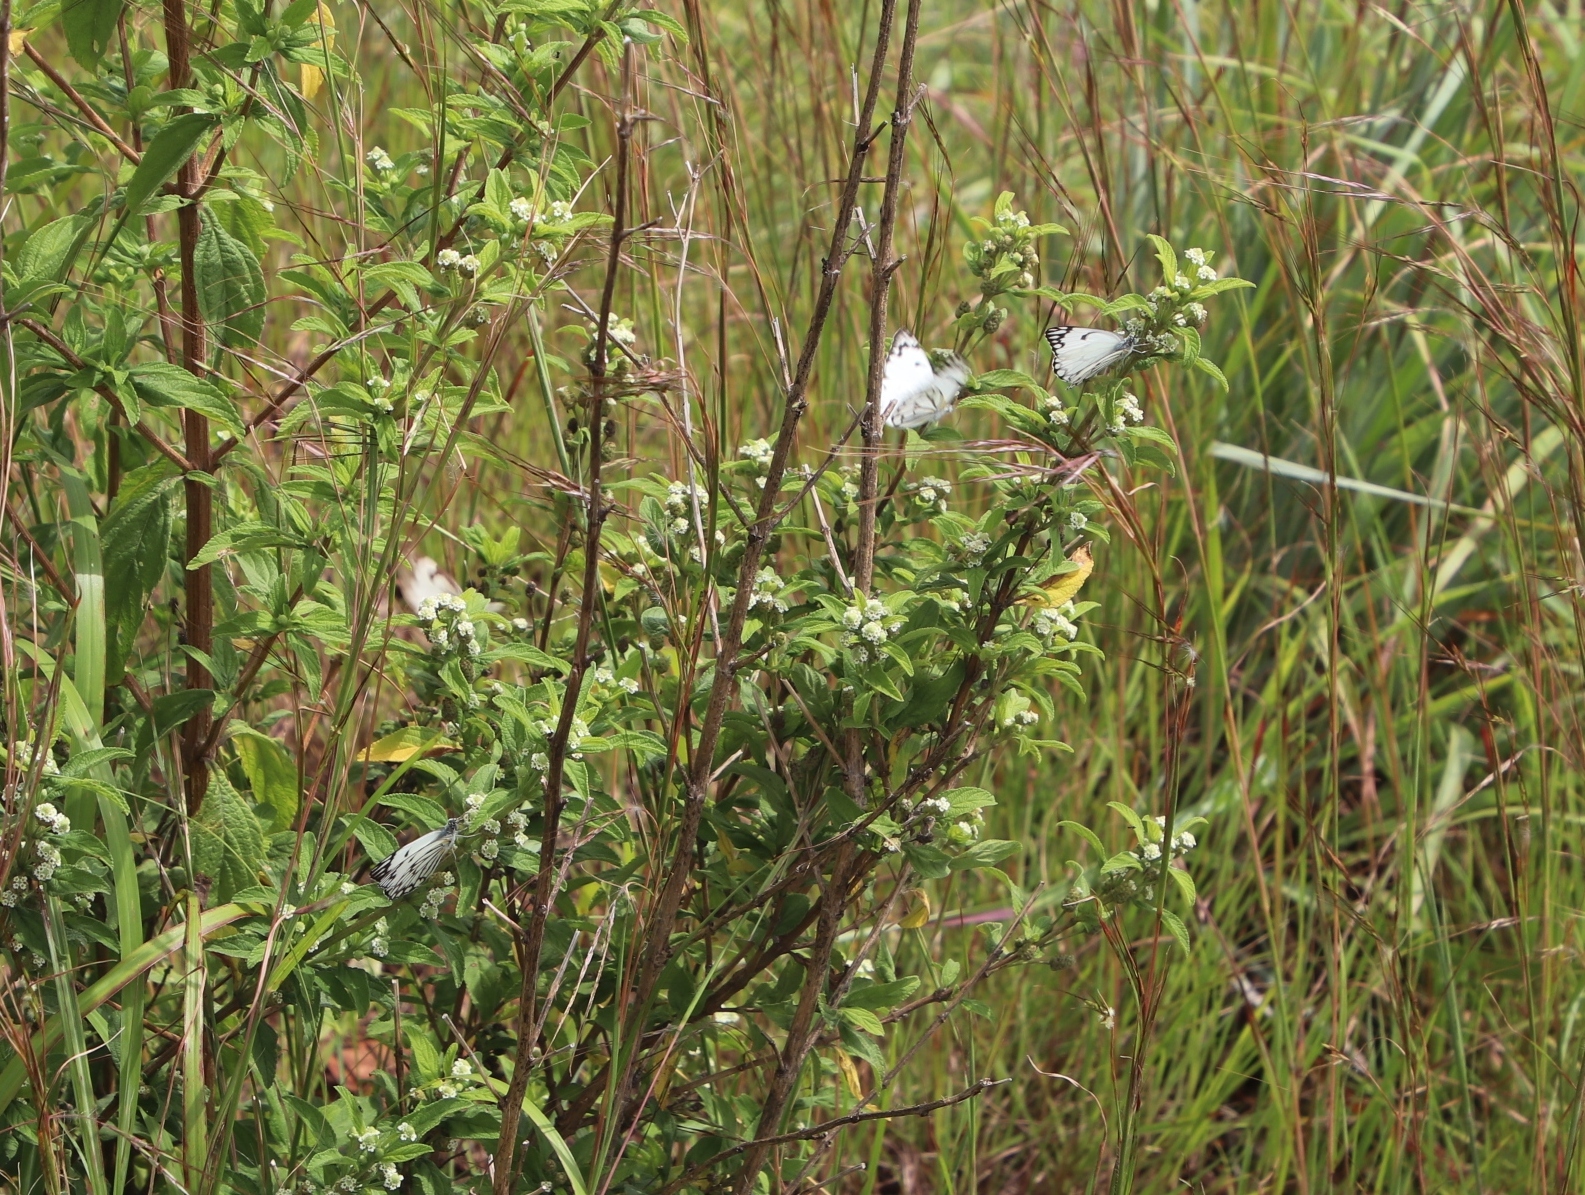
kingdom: Animalia
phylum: Arthropoda
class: Insecta
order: Lepidoptera
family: Pieridae
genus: Belenois
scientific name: Belenois aurota
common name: Brown-veined white
